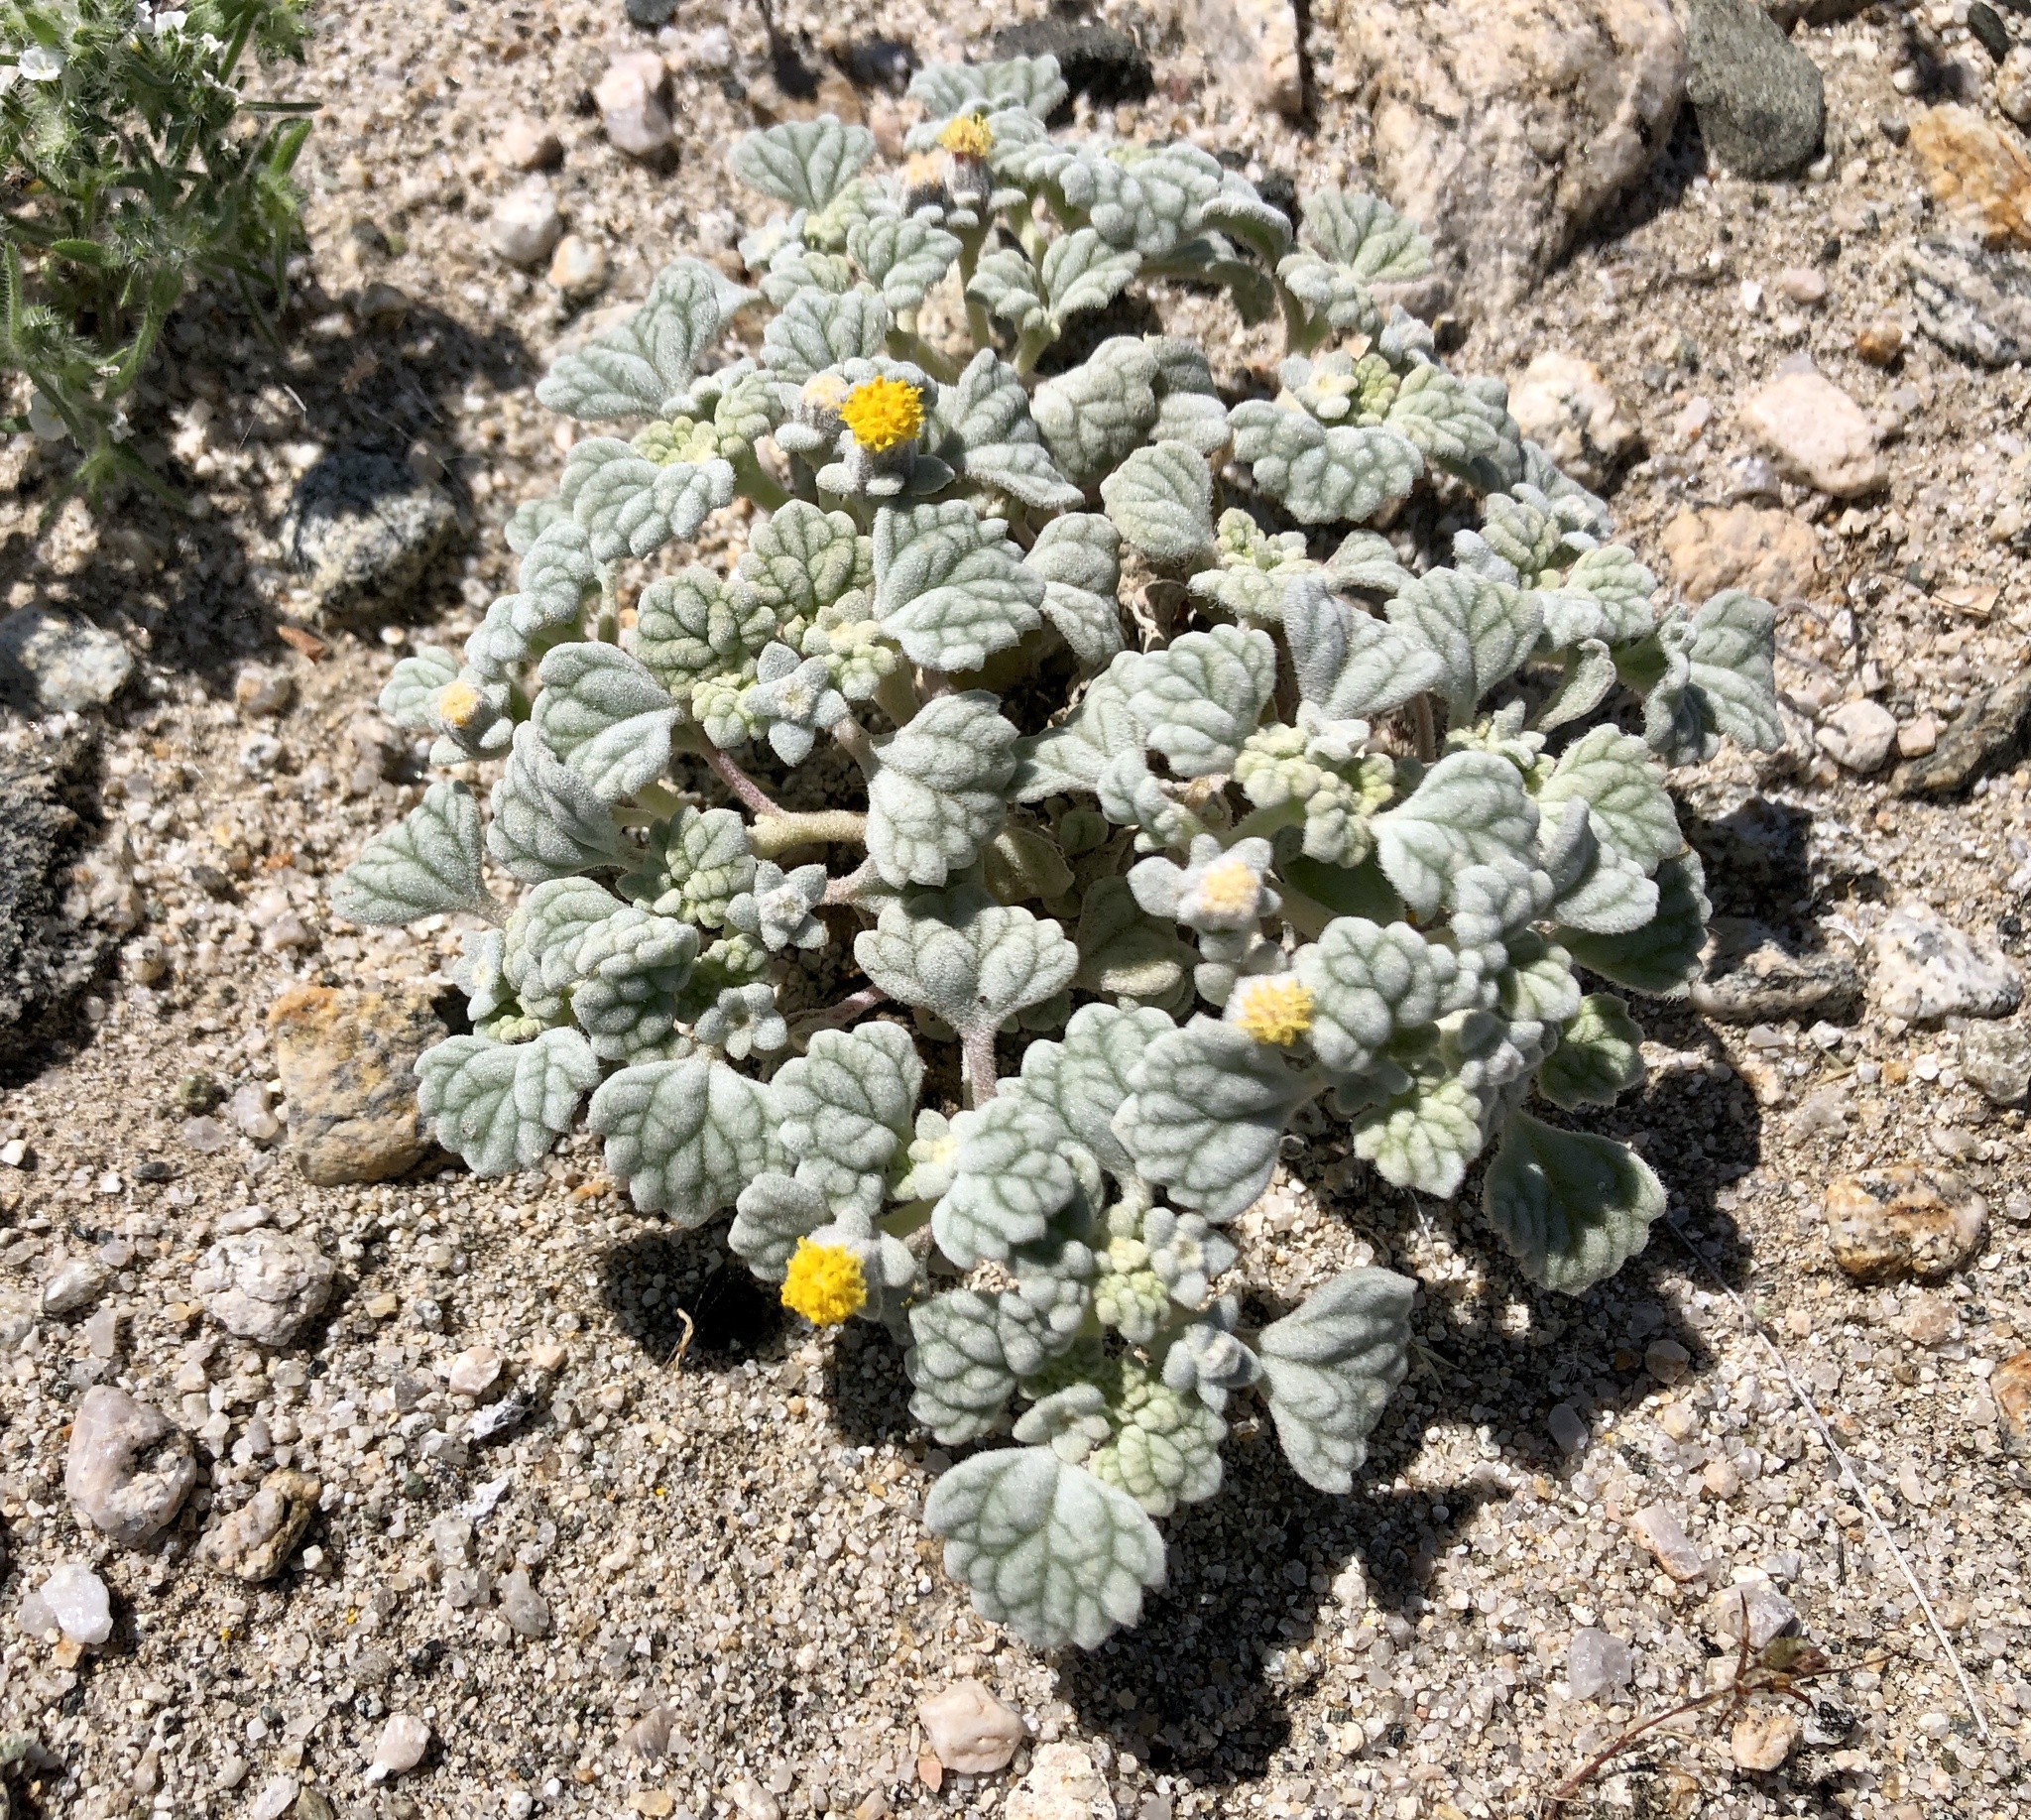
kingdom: Plantae
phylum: Tracheophyta
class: Magnoliopsida
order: Asterales
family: Asteraceae
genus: Psathyrotes
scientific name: Psathyrotes ramosissima
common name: Turtleback
